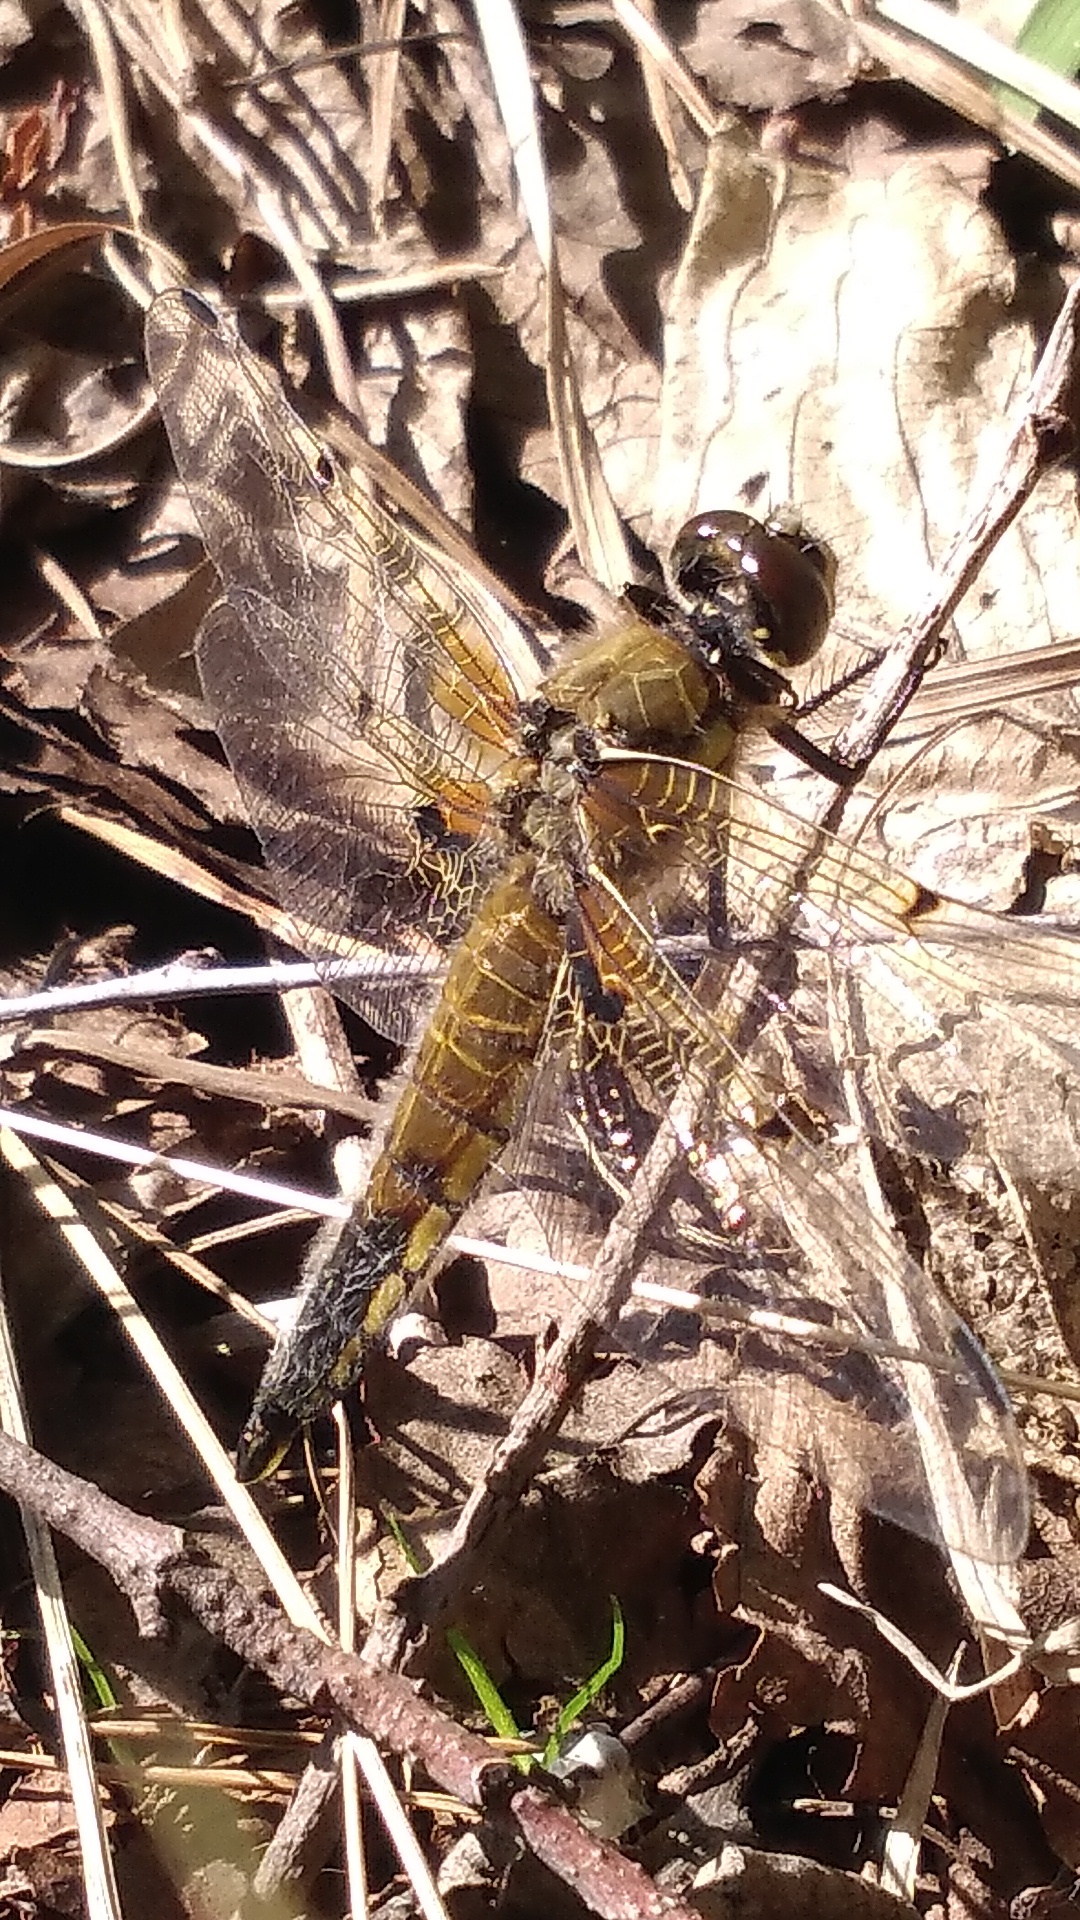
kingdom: Animalia
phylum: Arthropoda
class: Insecta
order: Odonata
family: Libellulidae
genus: Libellula
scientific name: Libellula quadrimaculata
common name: Four-spotted chaser
